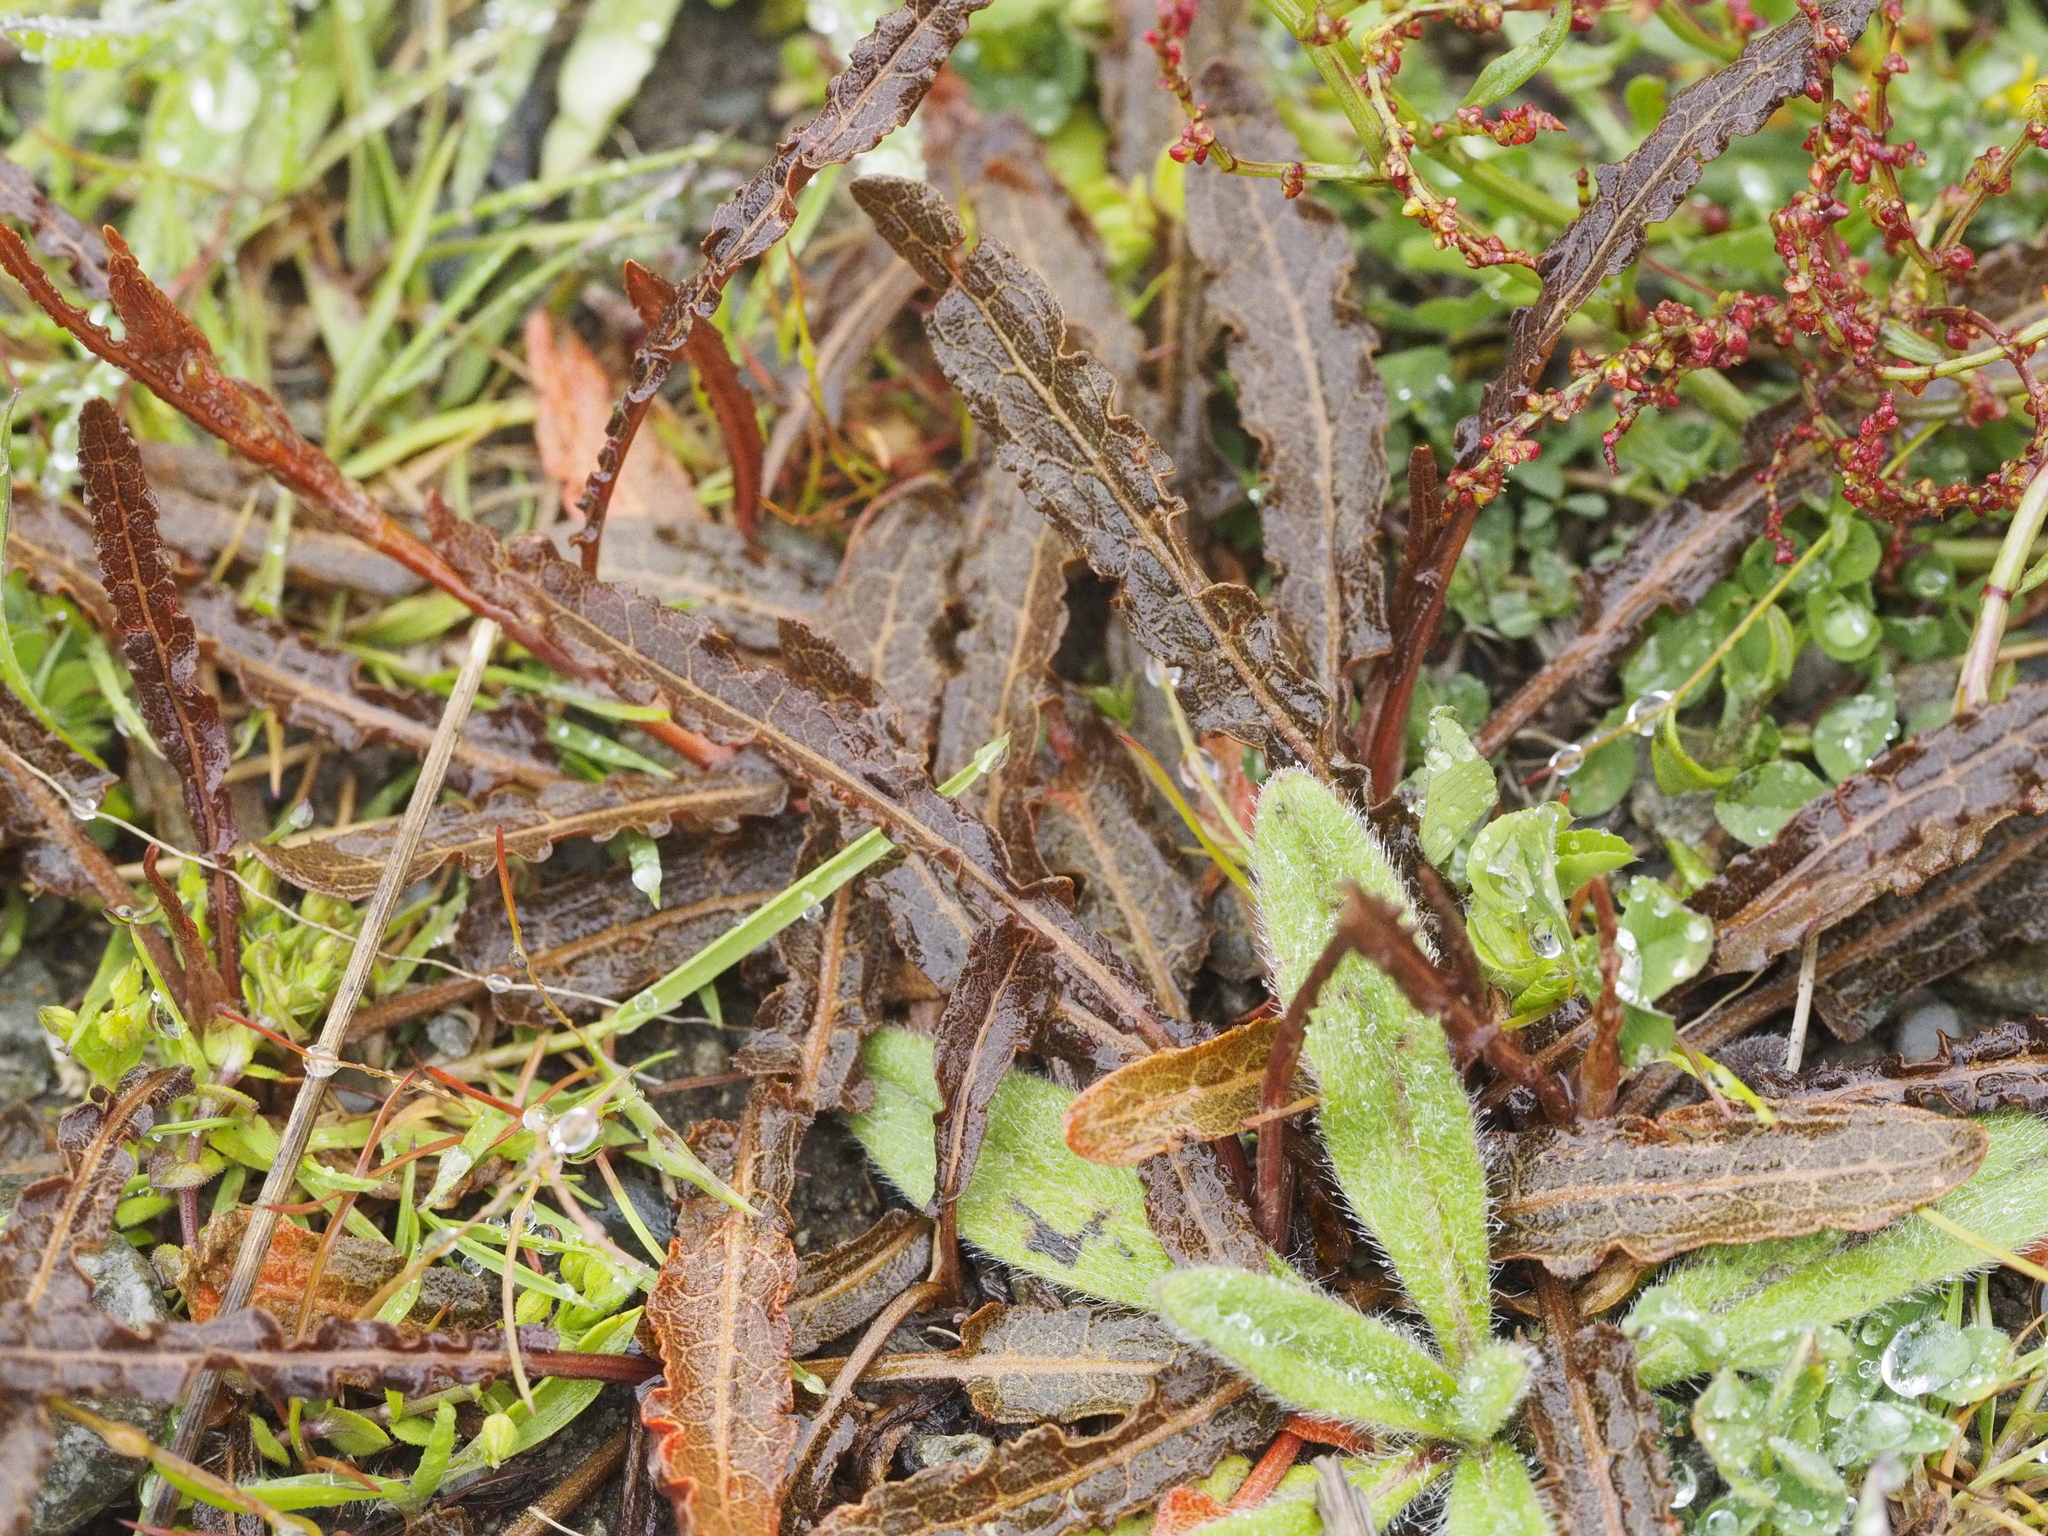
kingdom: Plantae
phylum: Tracheophyta
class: Magnoliopsida
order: Caryophyllales
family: Polygonaceae
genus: Rumex
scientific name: Rumex flexuosus
